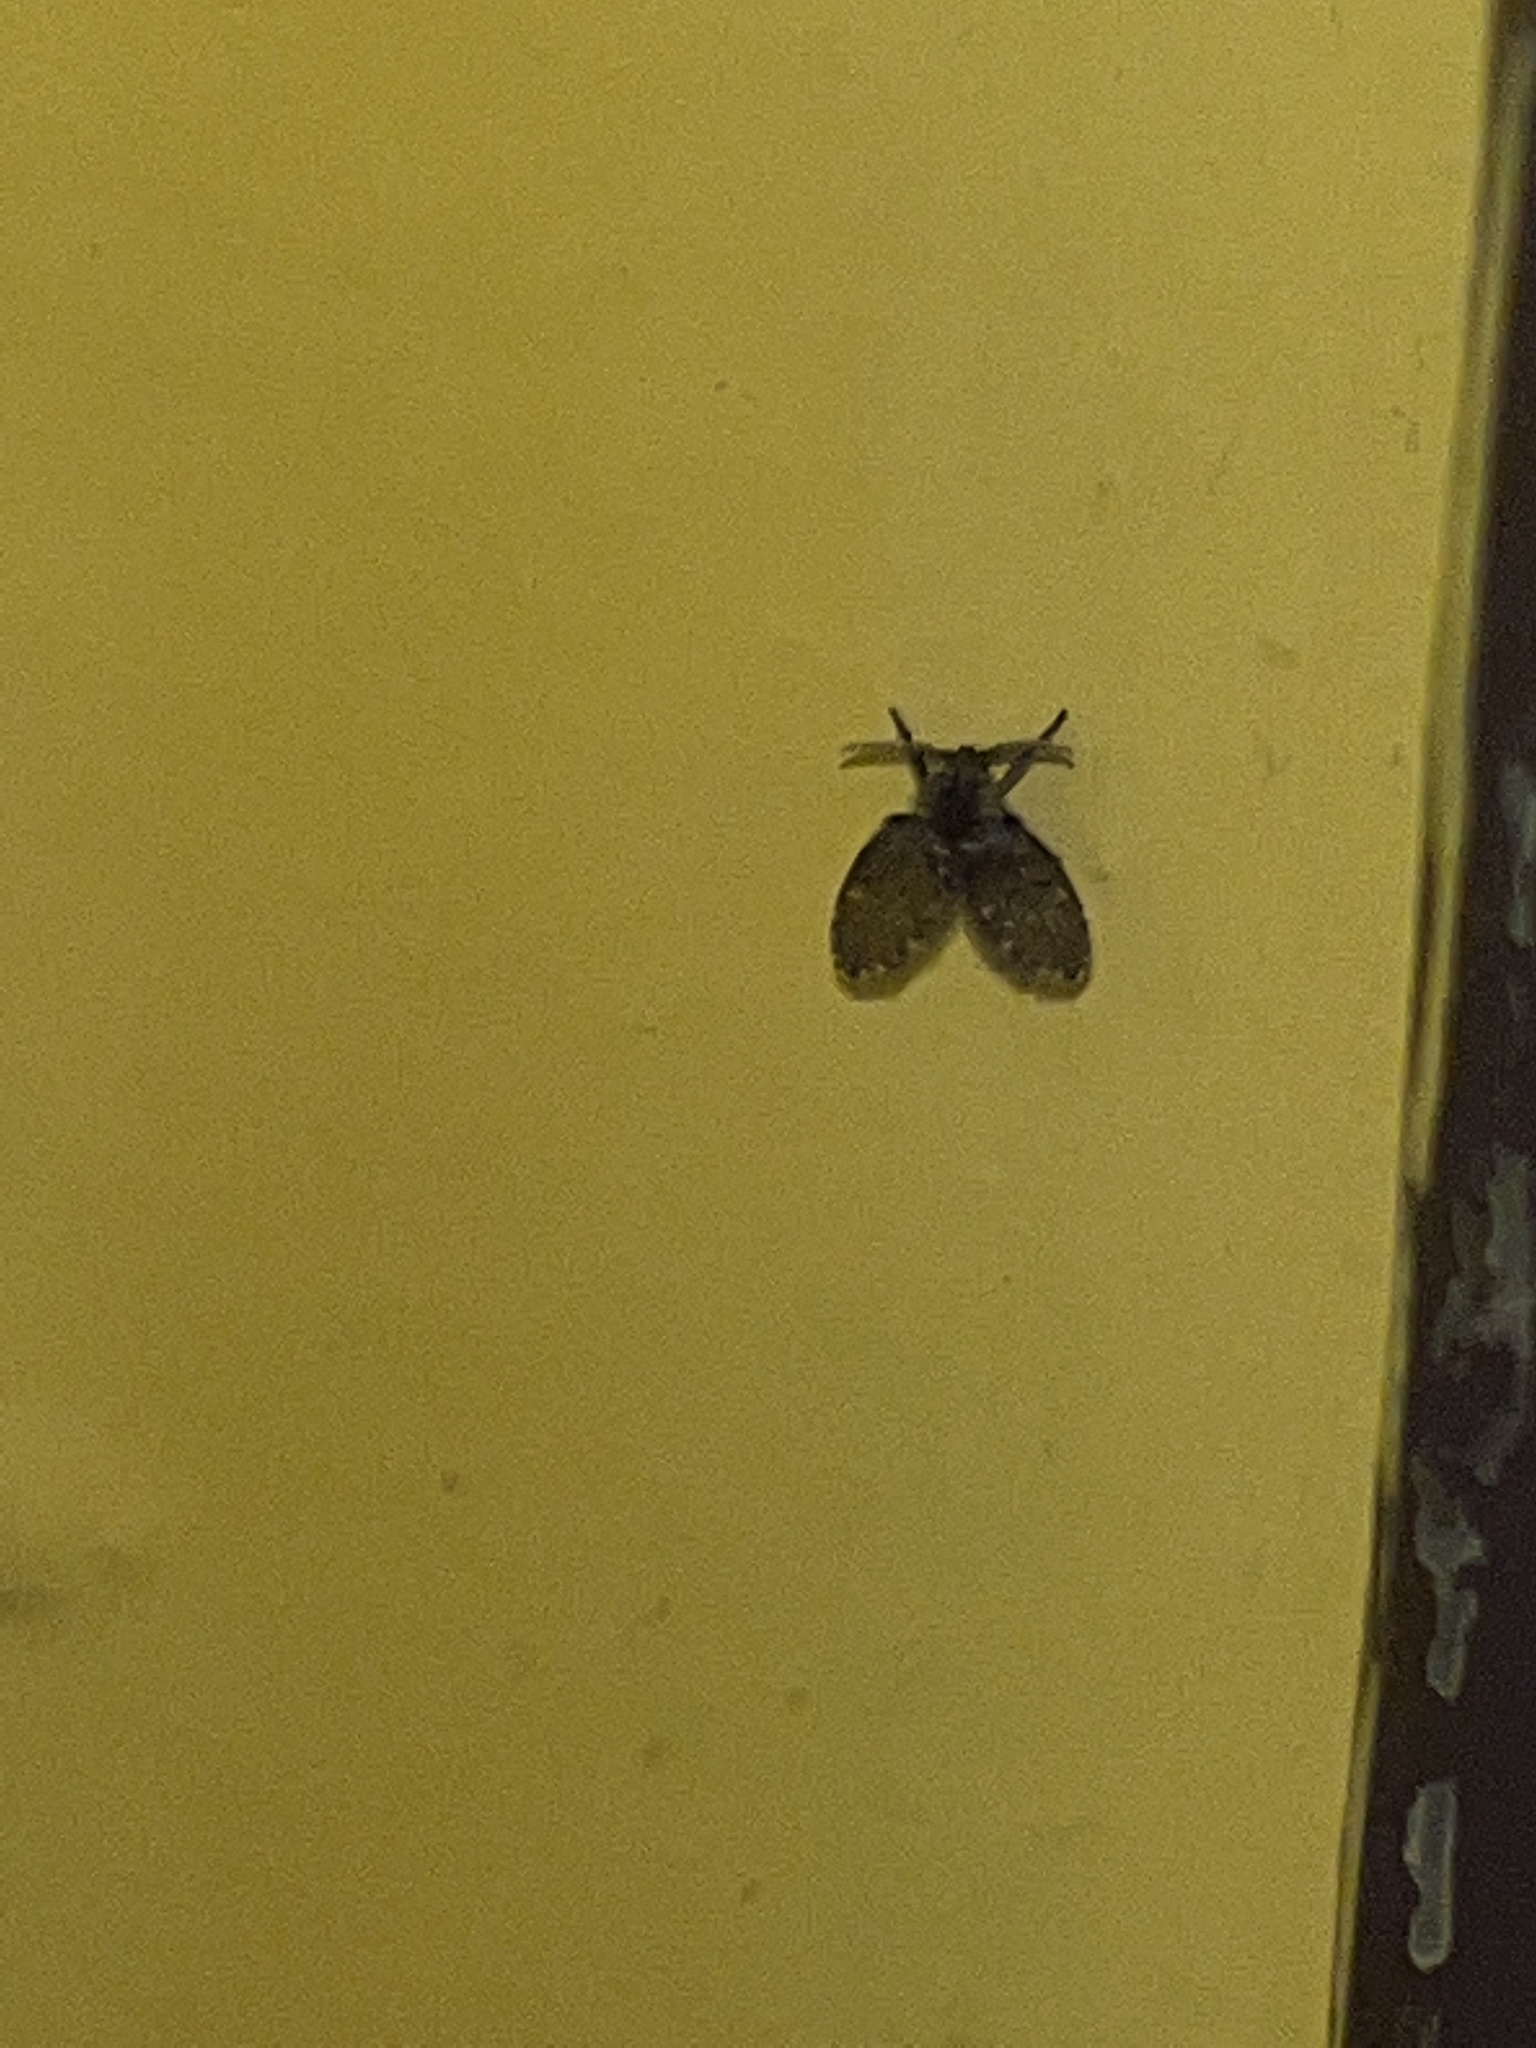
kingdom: Animalia
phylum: Arthropoda
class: Insecta
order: Diptera
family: Psychodidae
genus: Clogmia
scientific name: Clogmia albipunctatus
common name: White-spotted moth fly
